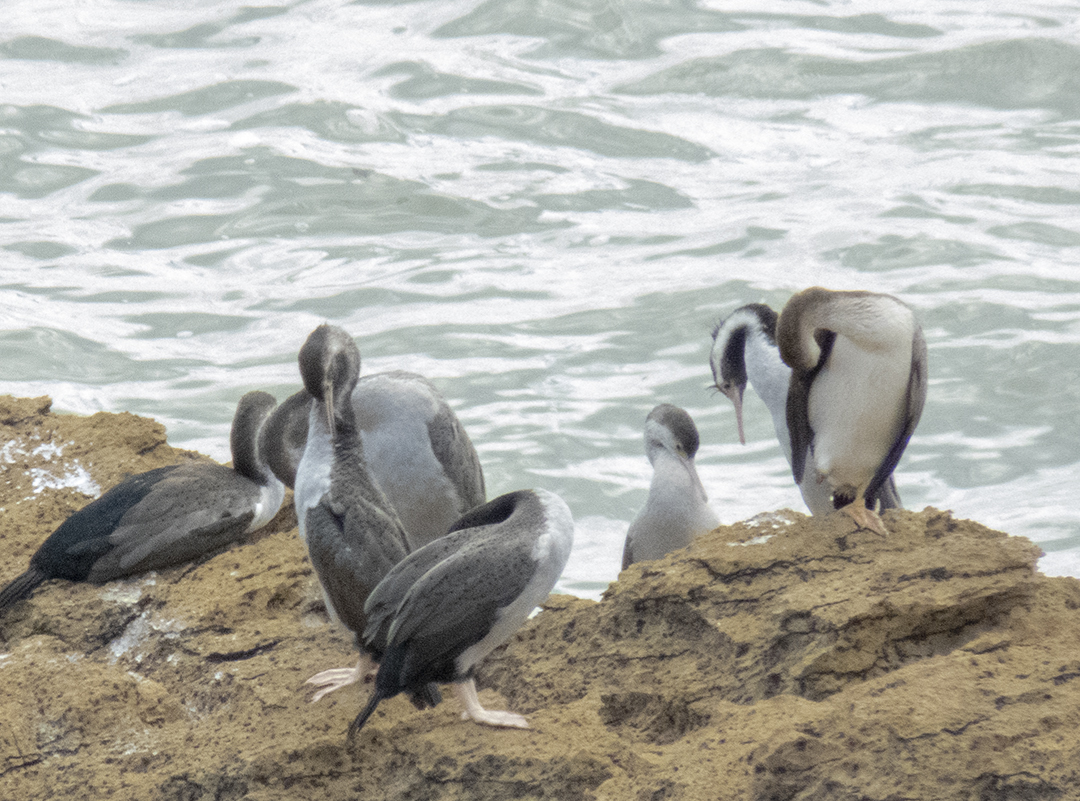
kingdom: Animalia
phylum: Chordata
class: Aves
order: Suliformes
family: Phalacrocoracidae
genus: Phalacrocorax
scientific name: Phalacrocorax punctatus
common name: Spotted shag
